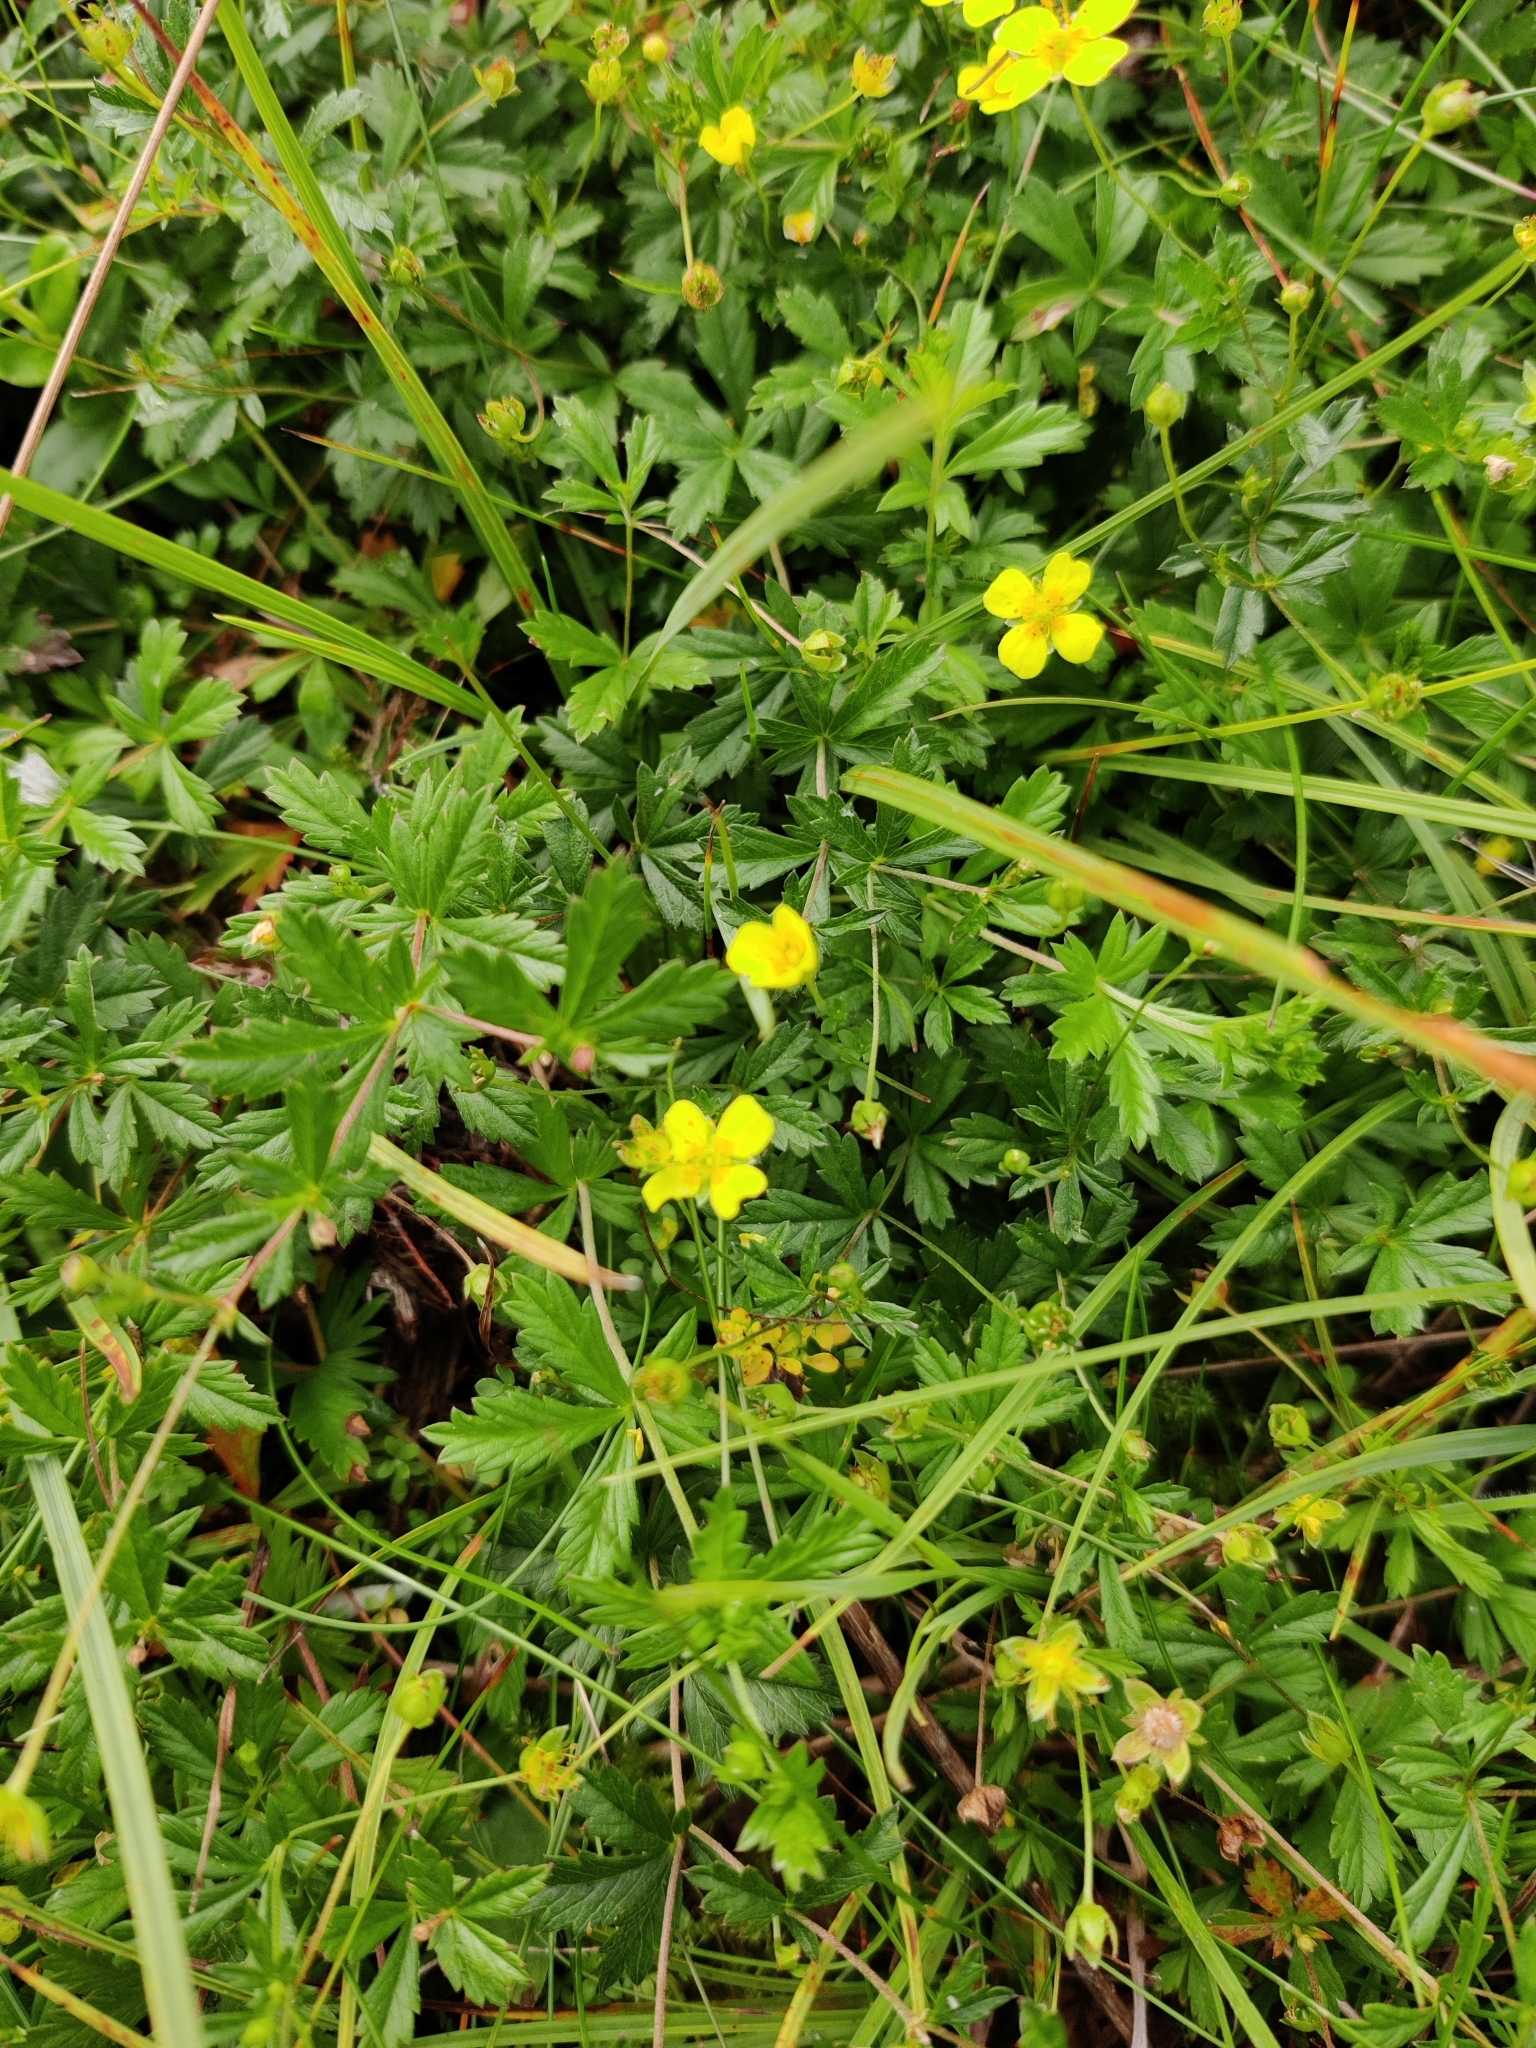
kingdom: Plantae
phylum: Tracheophyta
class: Magnoliopsida
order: Rosales
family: Rosaceae
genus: Potentilla
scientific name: Potentilla erecta
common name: Tormentil
